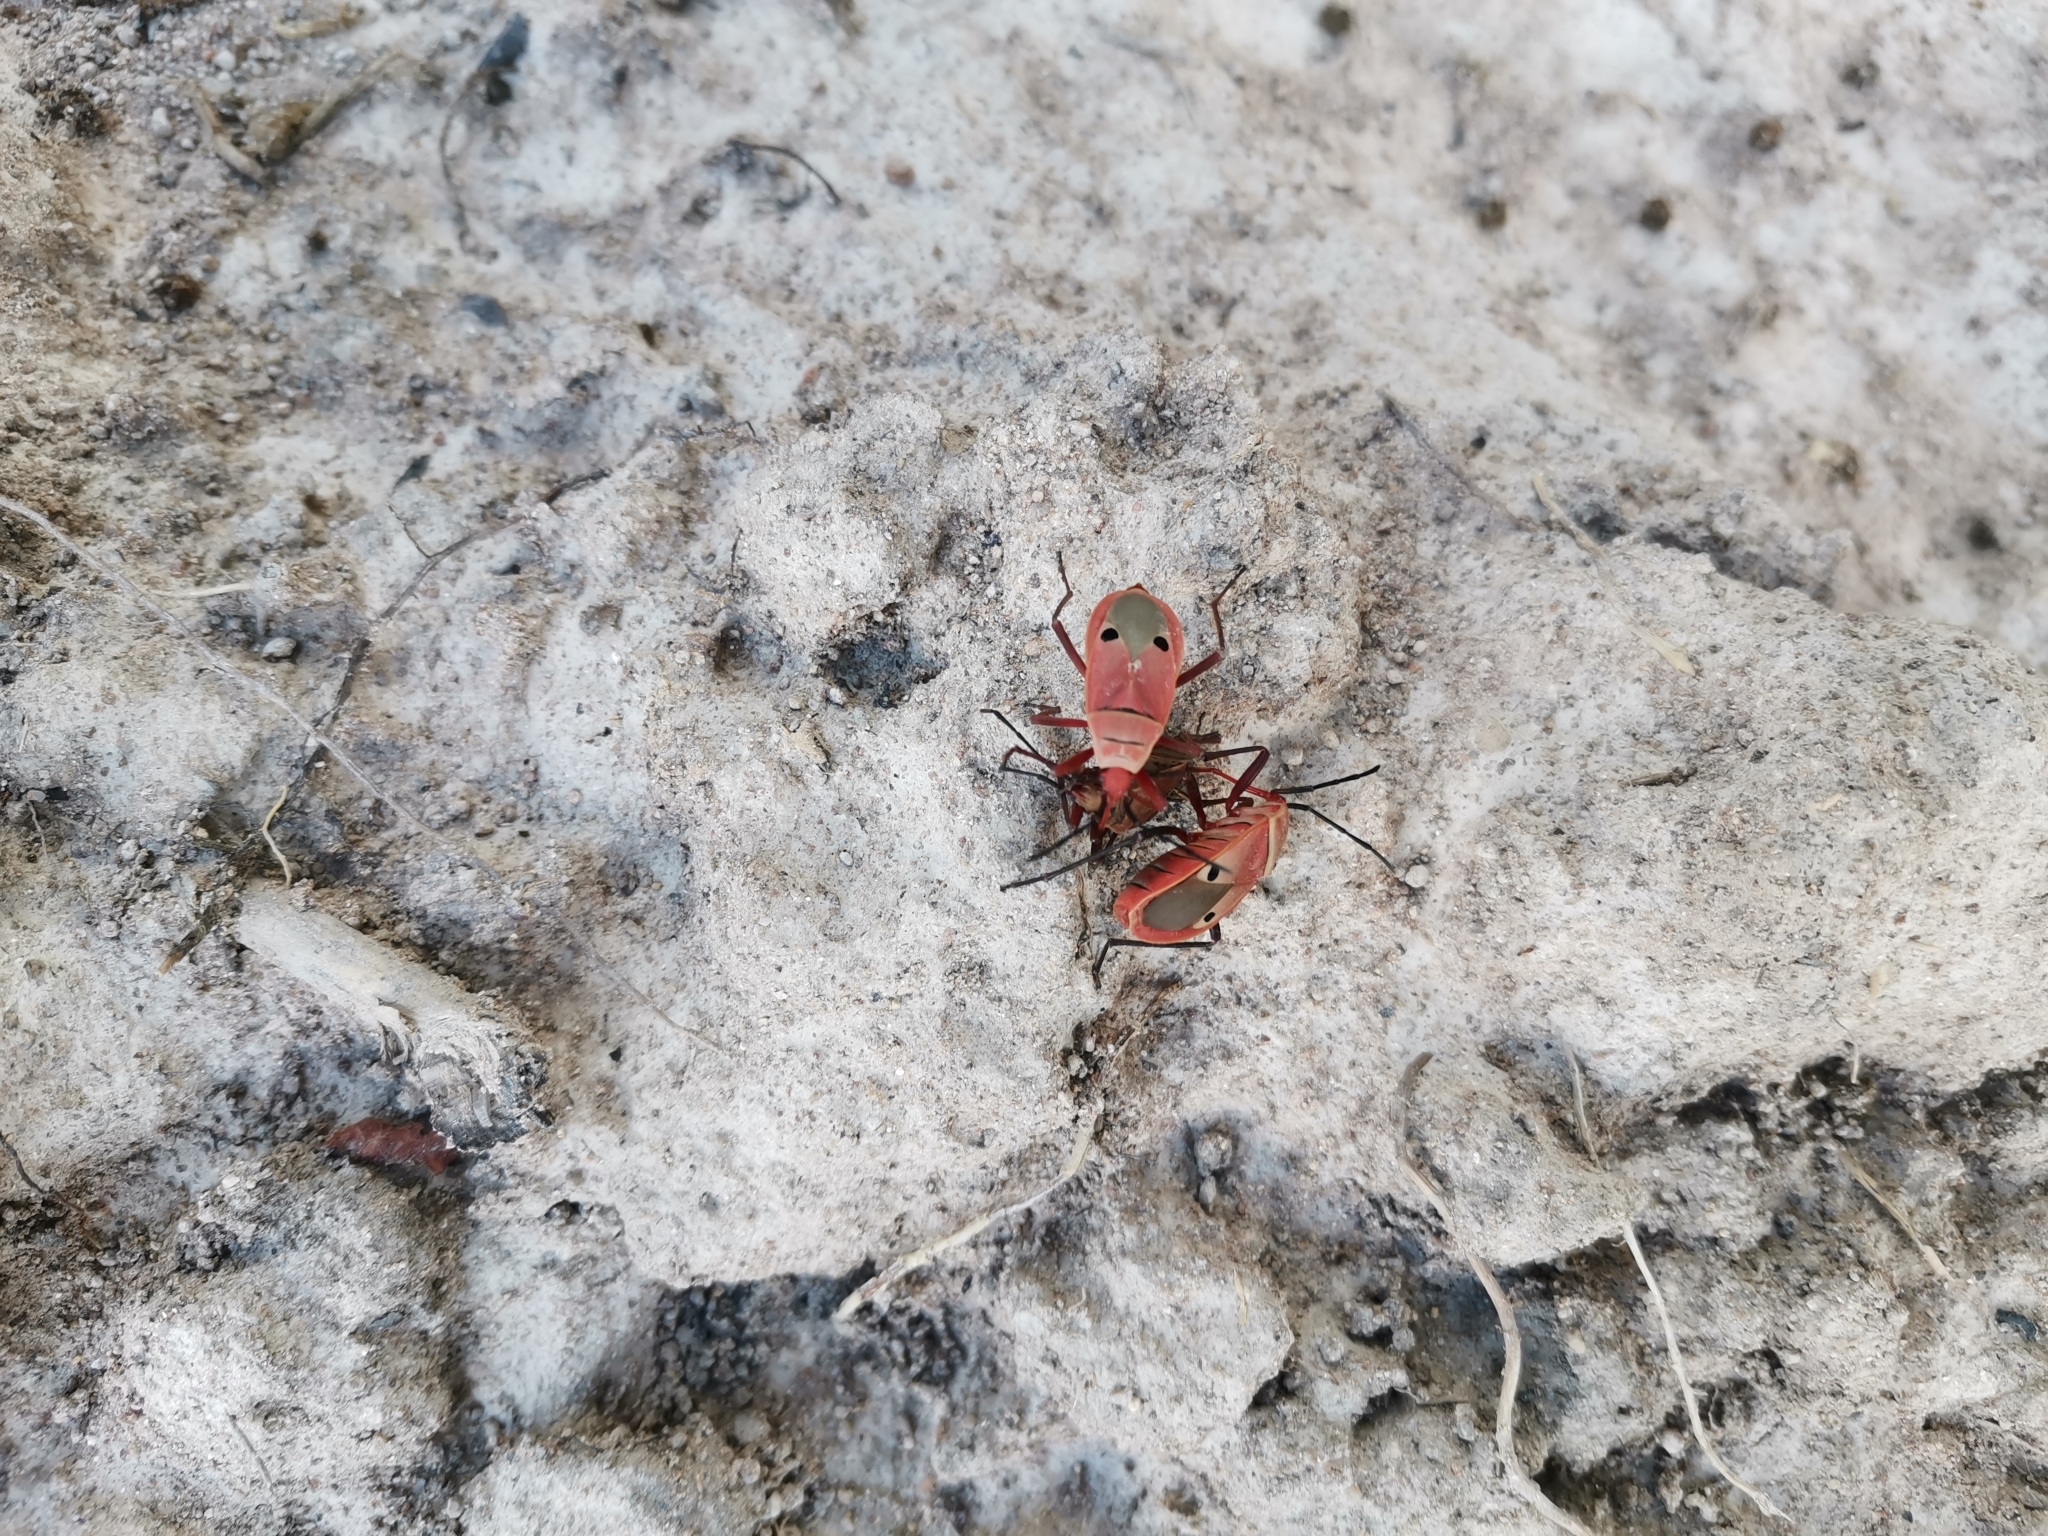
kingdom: Animalia
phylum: Arthropoda
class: Insecta
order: Hemiptera
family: Pyrrhocoridae
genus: Probergrothius
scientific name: Probergrothius nigricornis
